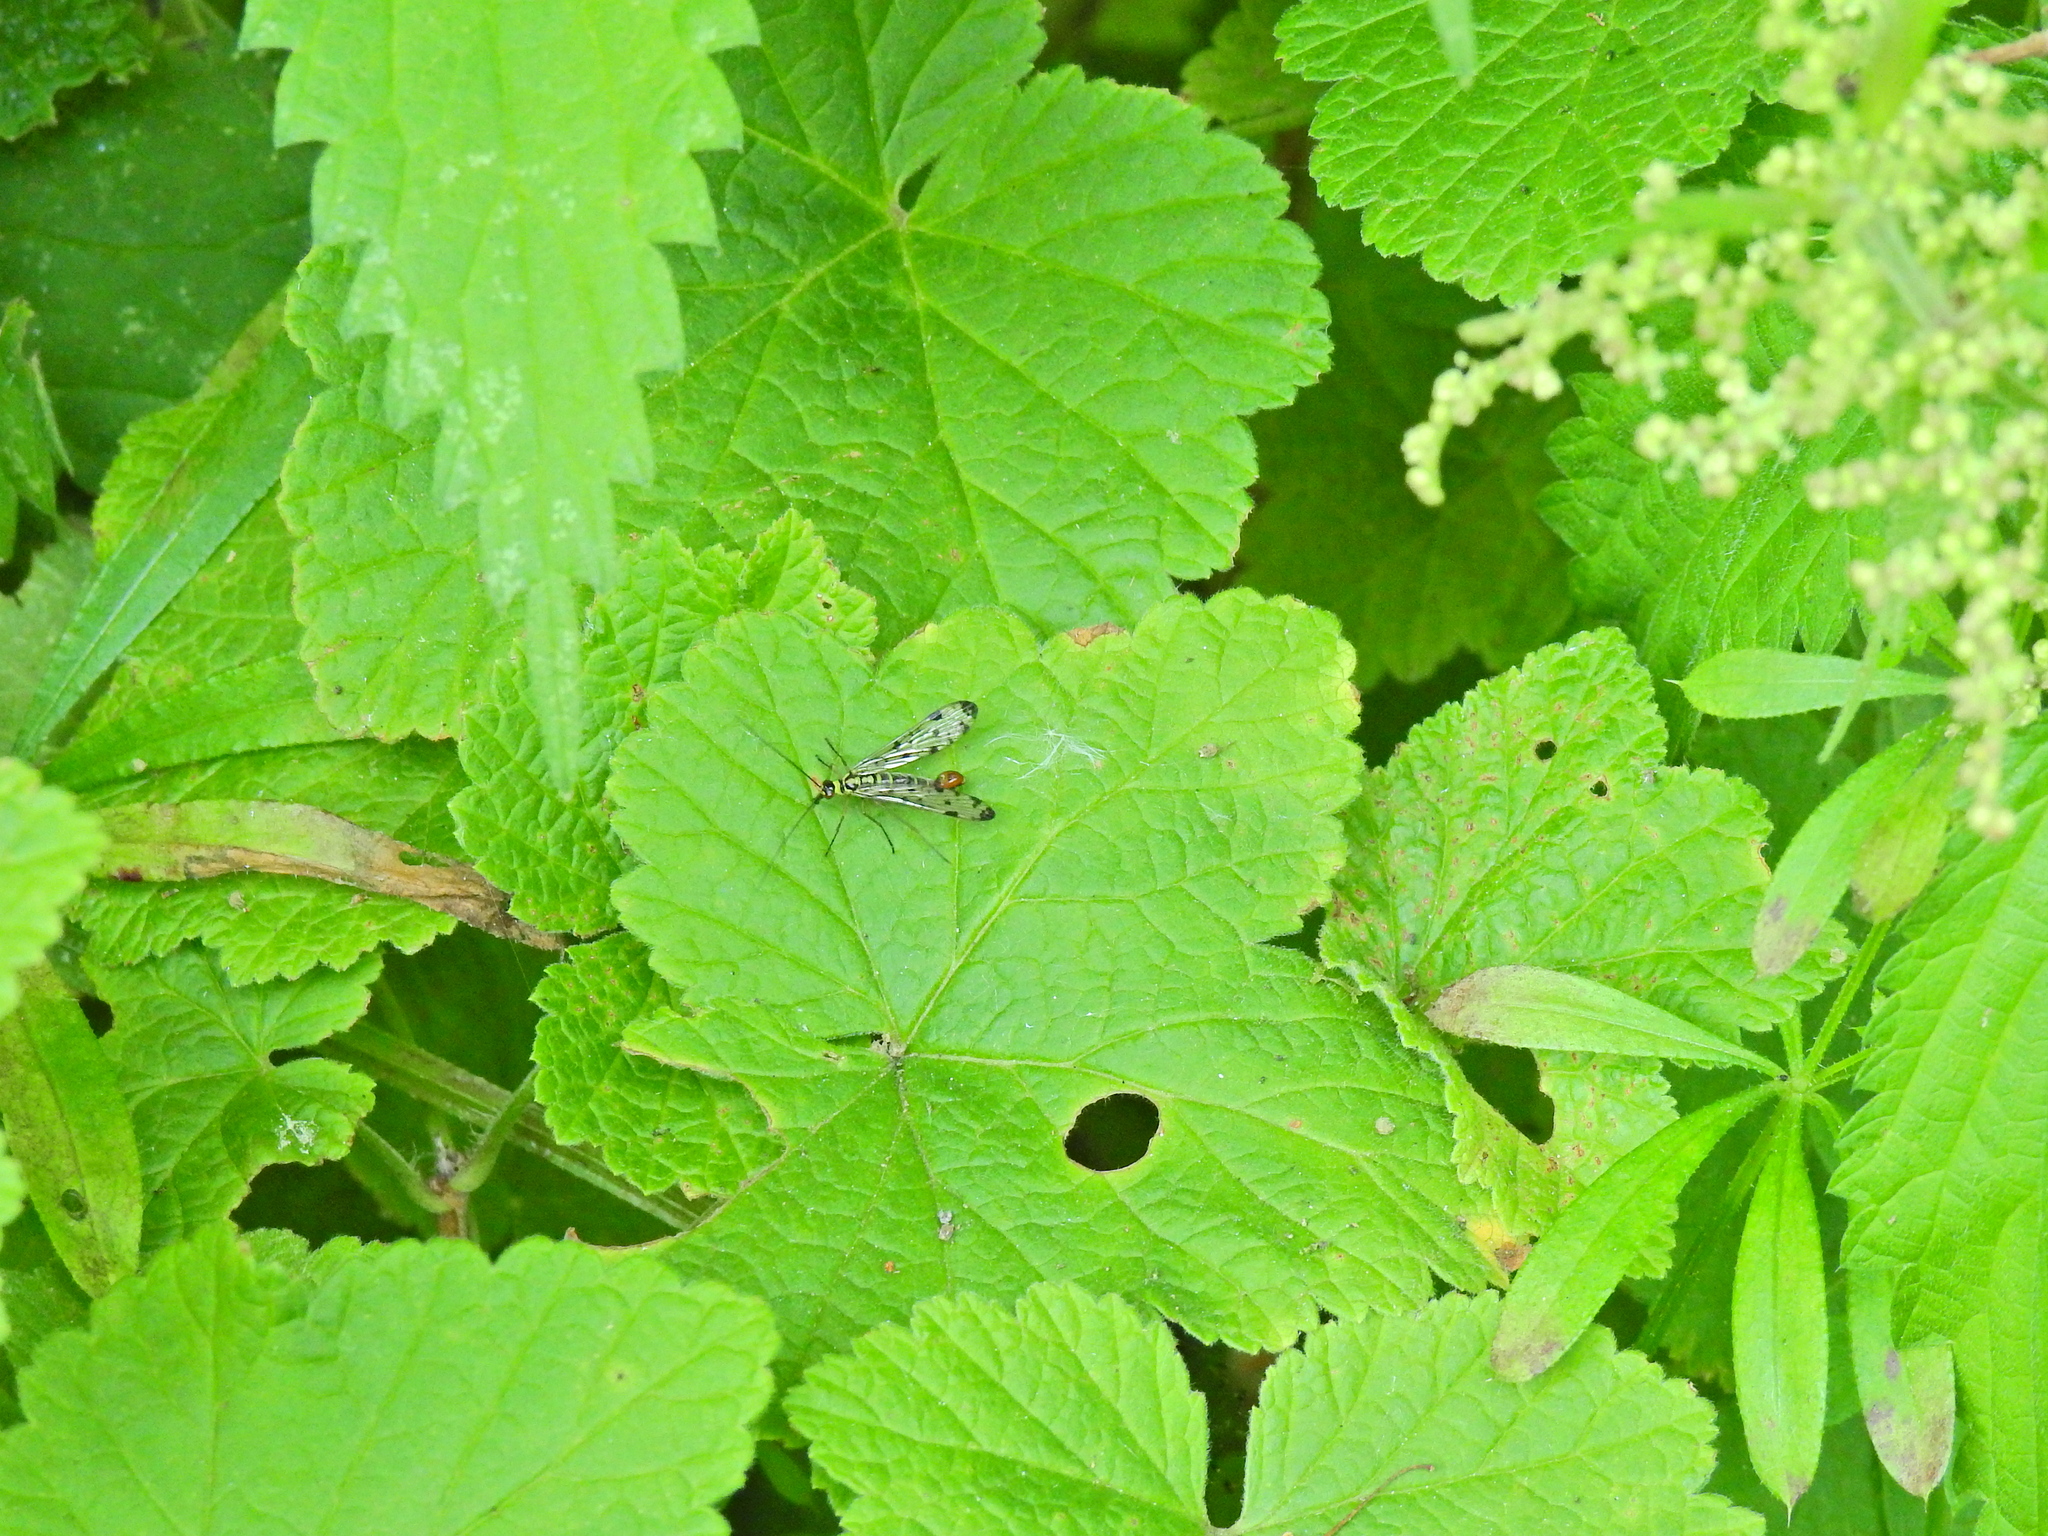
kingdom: Animalia
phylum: Arthropoda
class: Insecta
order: Mecoptera
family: Panorpidae
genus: Panorpa
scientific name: Panorpa germanica
